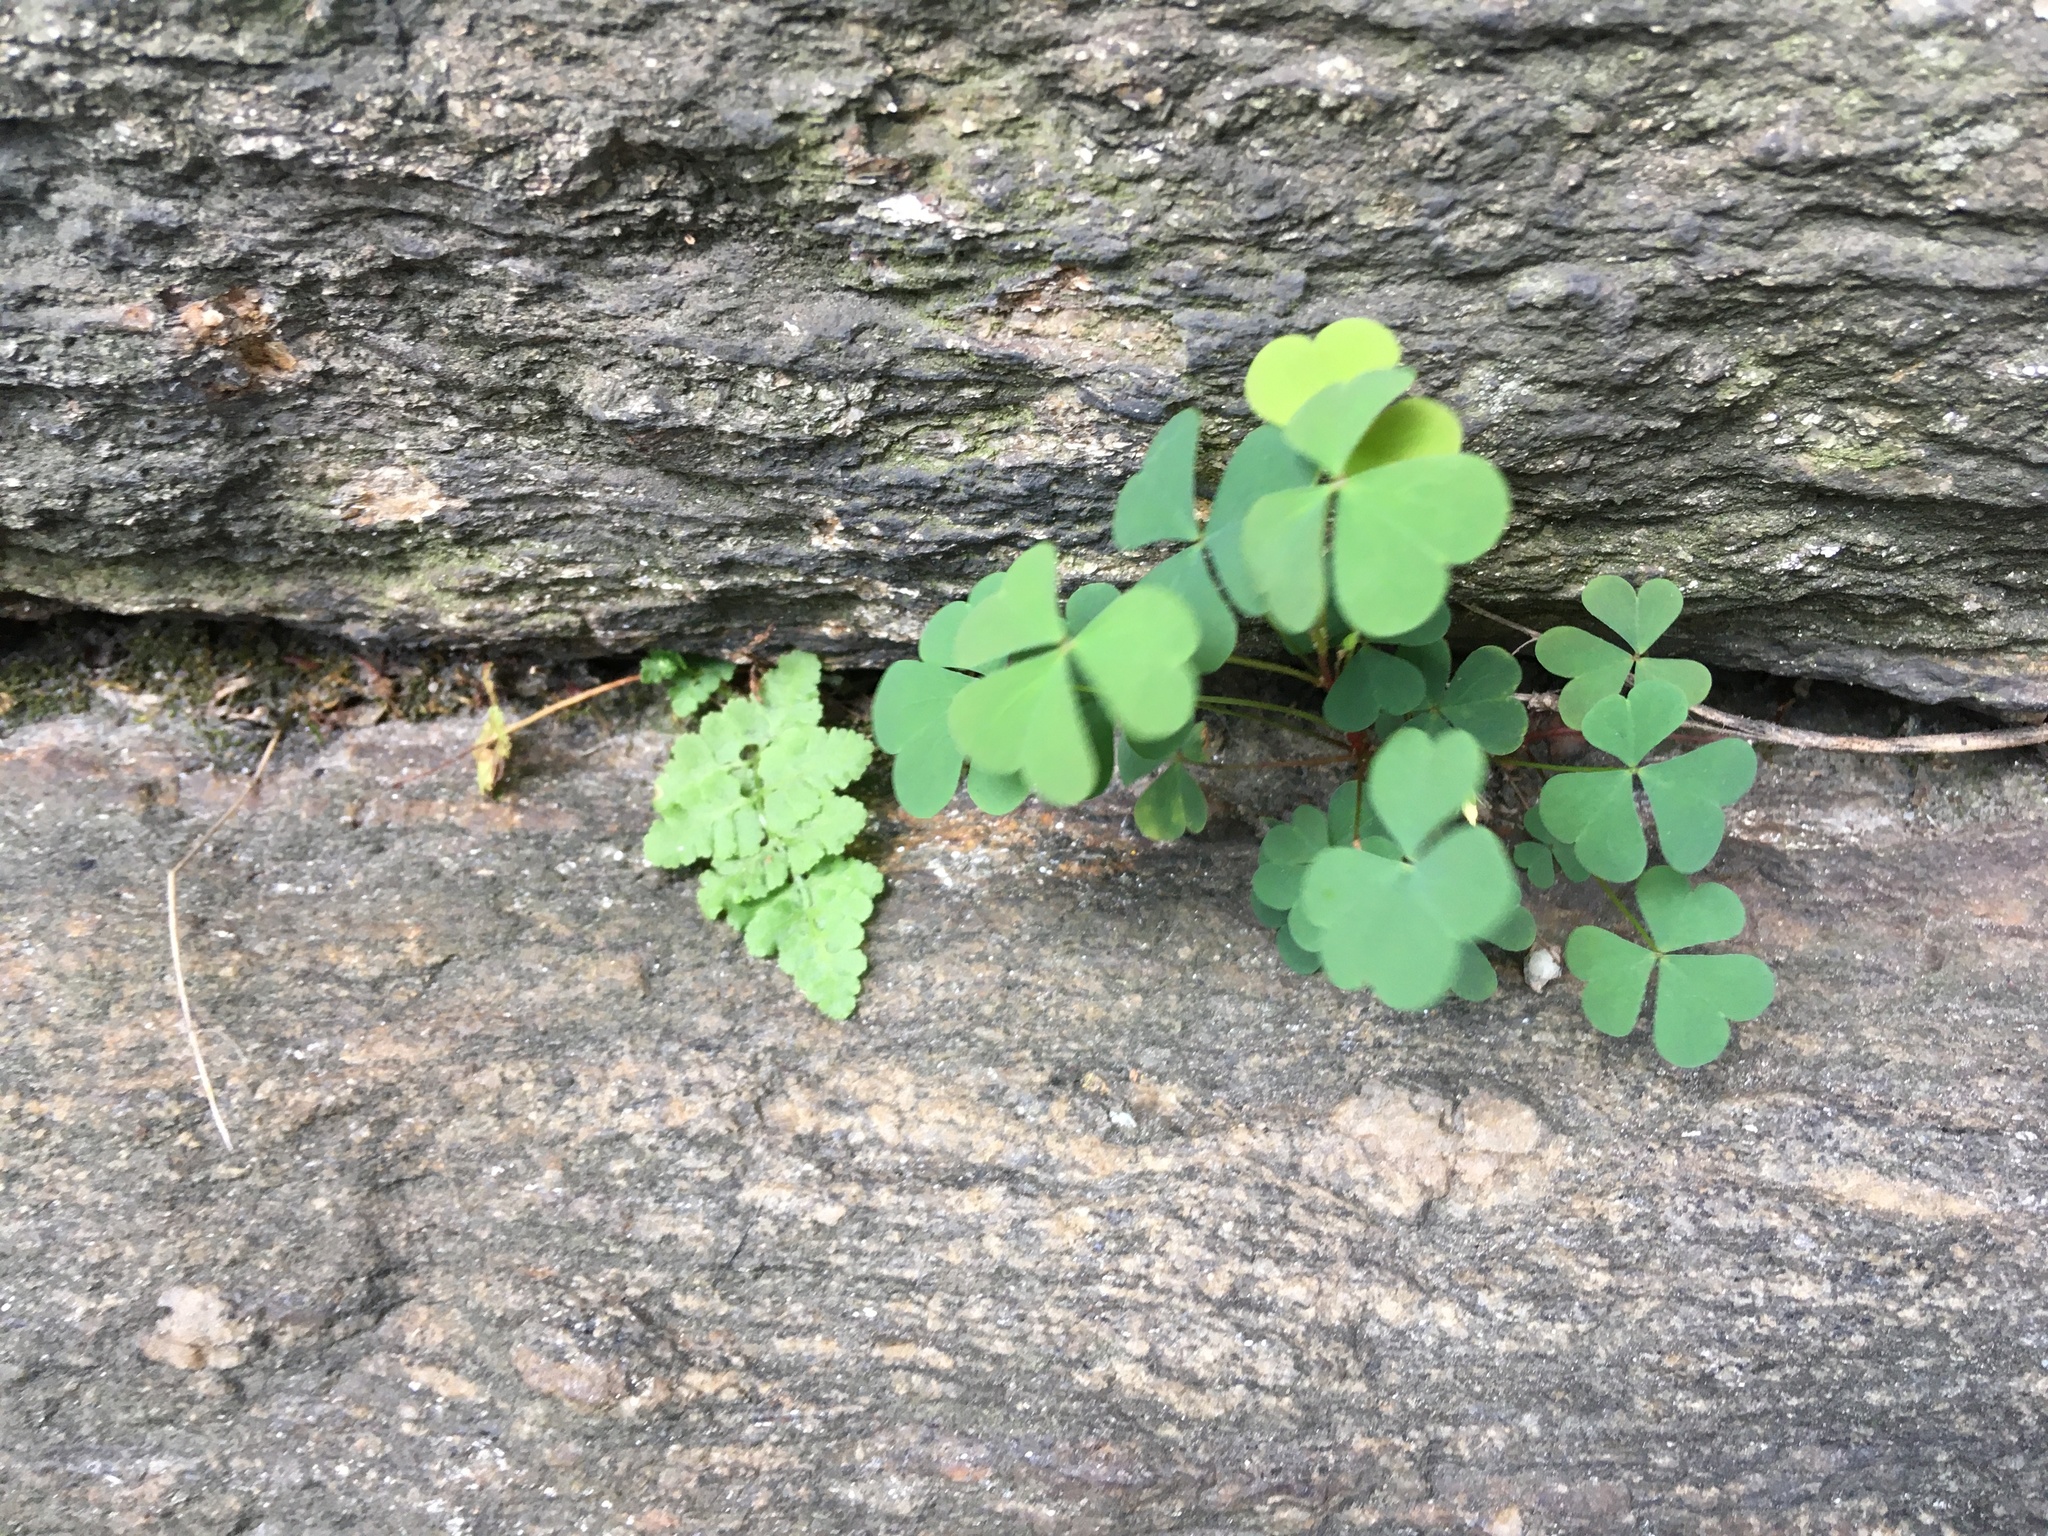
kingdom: Plantae
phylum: Tracheophyta
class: Magnoliopsida
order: Oxalidales
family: Oxalidaceae
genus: Oxalis
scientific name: Oxalis corniculata
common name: Procumbent yellow-sorrel
